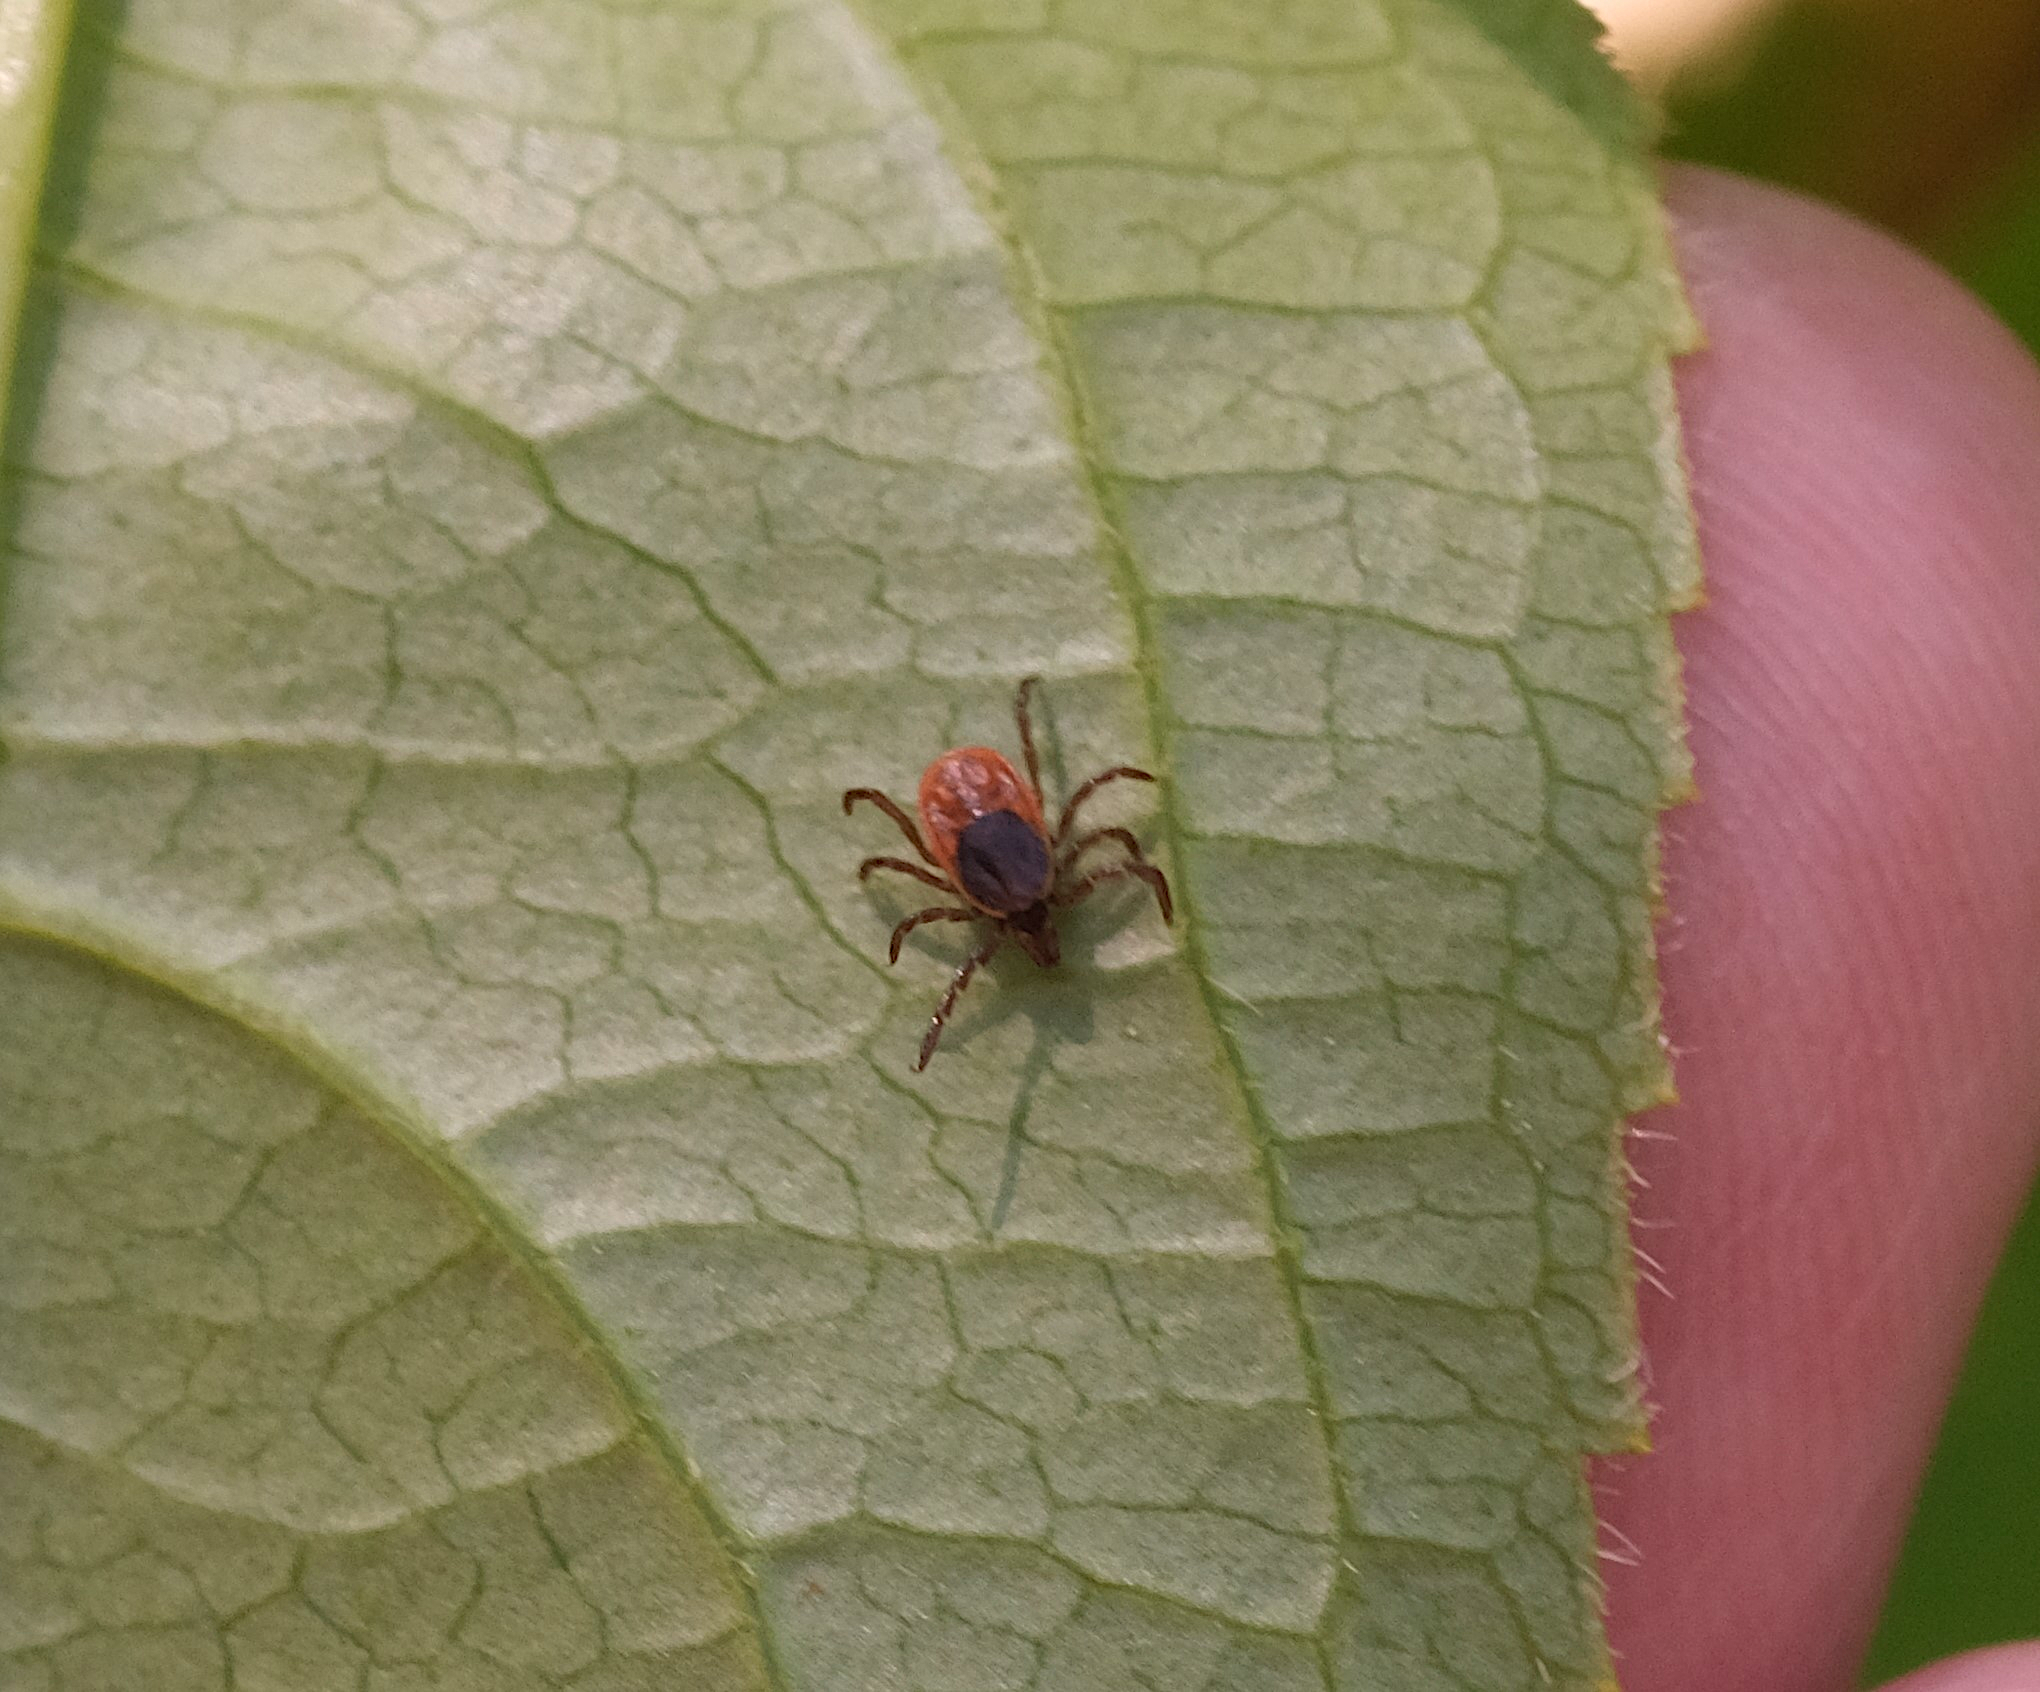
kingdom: Animalia
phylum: Arthropoda
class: Arachnida
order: Ixodida
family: Ixodidae
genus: Ixodes
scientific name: Ixodes scapularis
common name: Black legged tick
